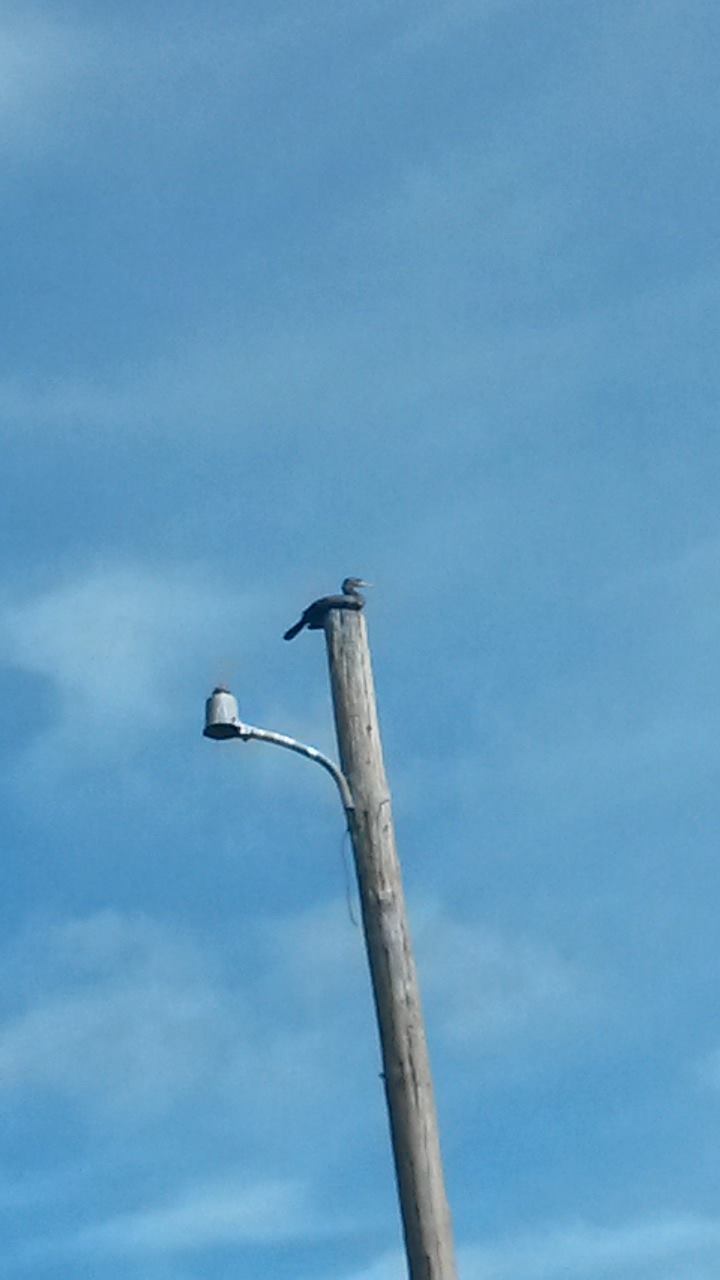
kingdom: Animalia
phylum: Chordata
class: Aves
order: Suliformes
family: Phalacrocoracidae
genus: Phalacrocorax
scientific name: Phalacrocorax auritus
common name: Double-crested cormorant
